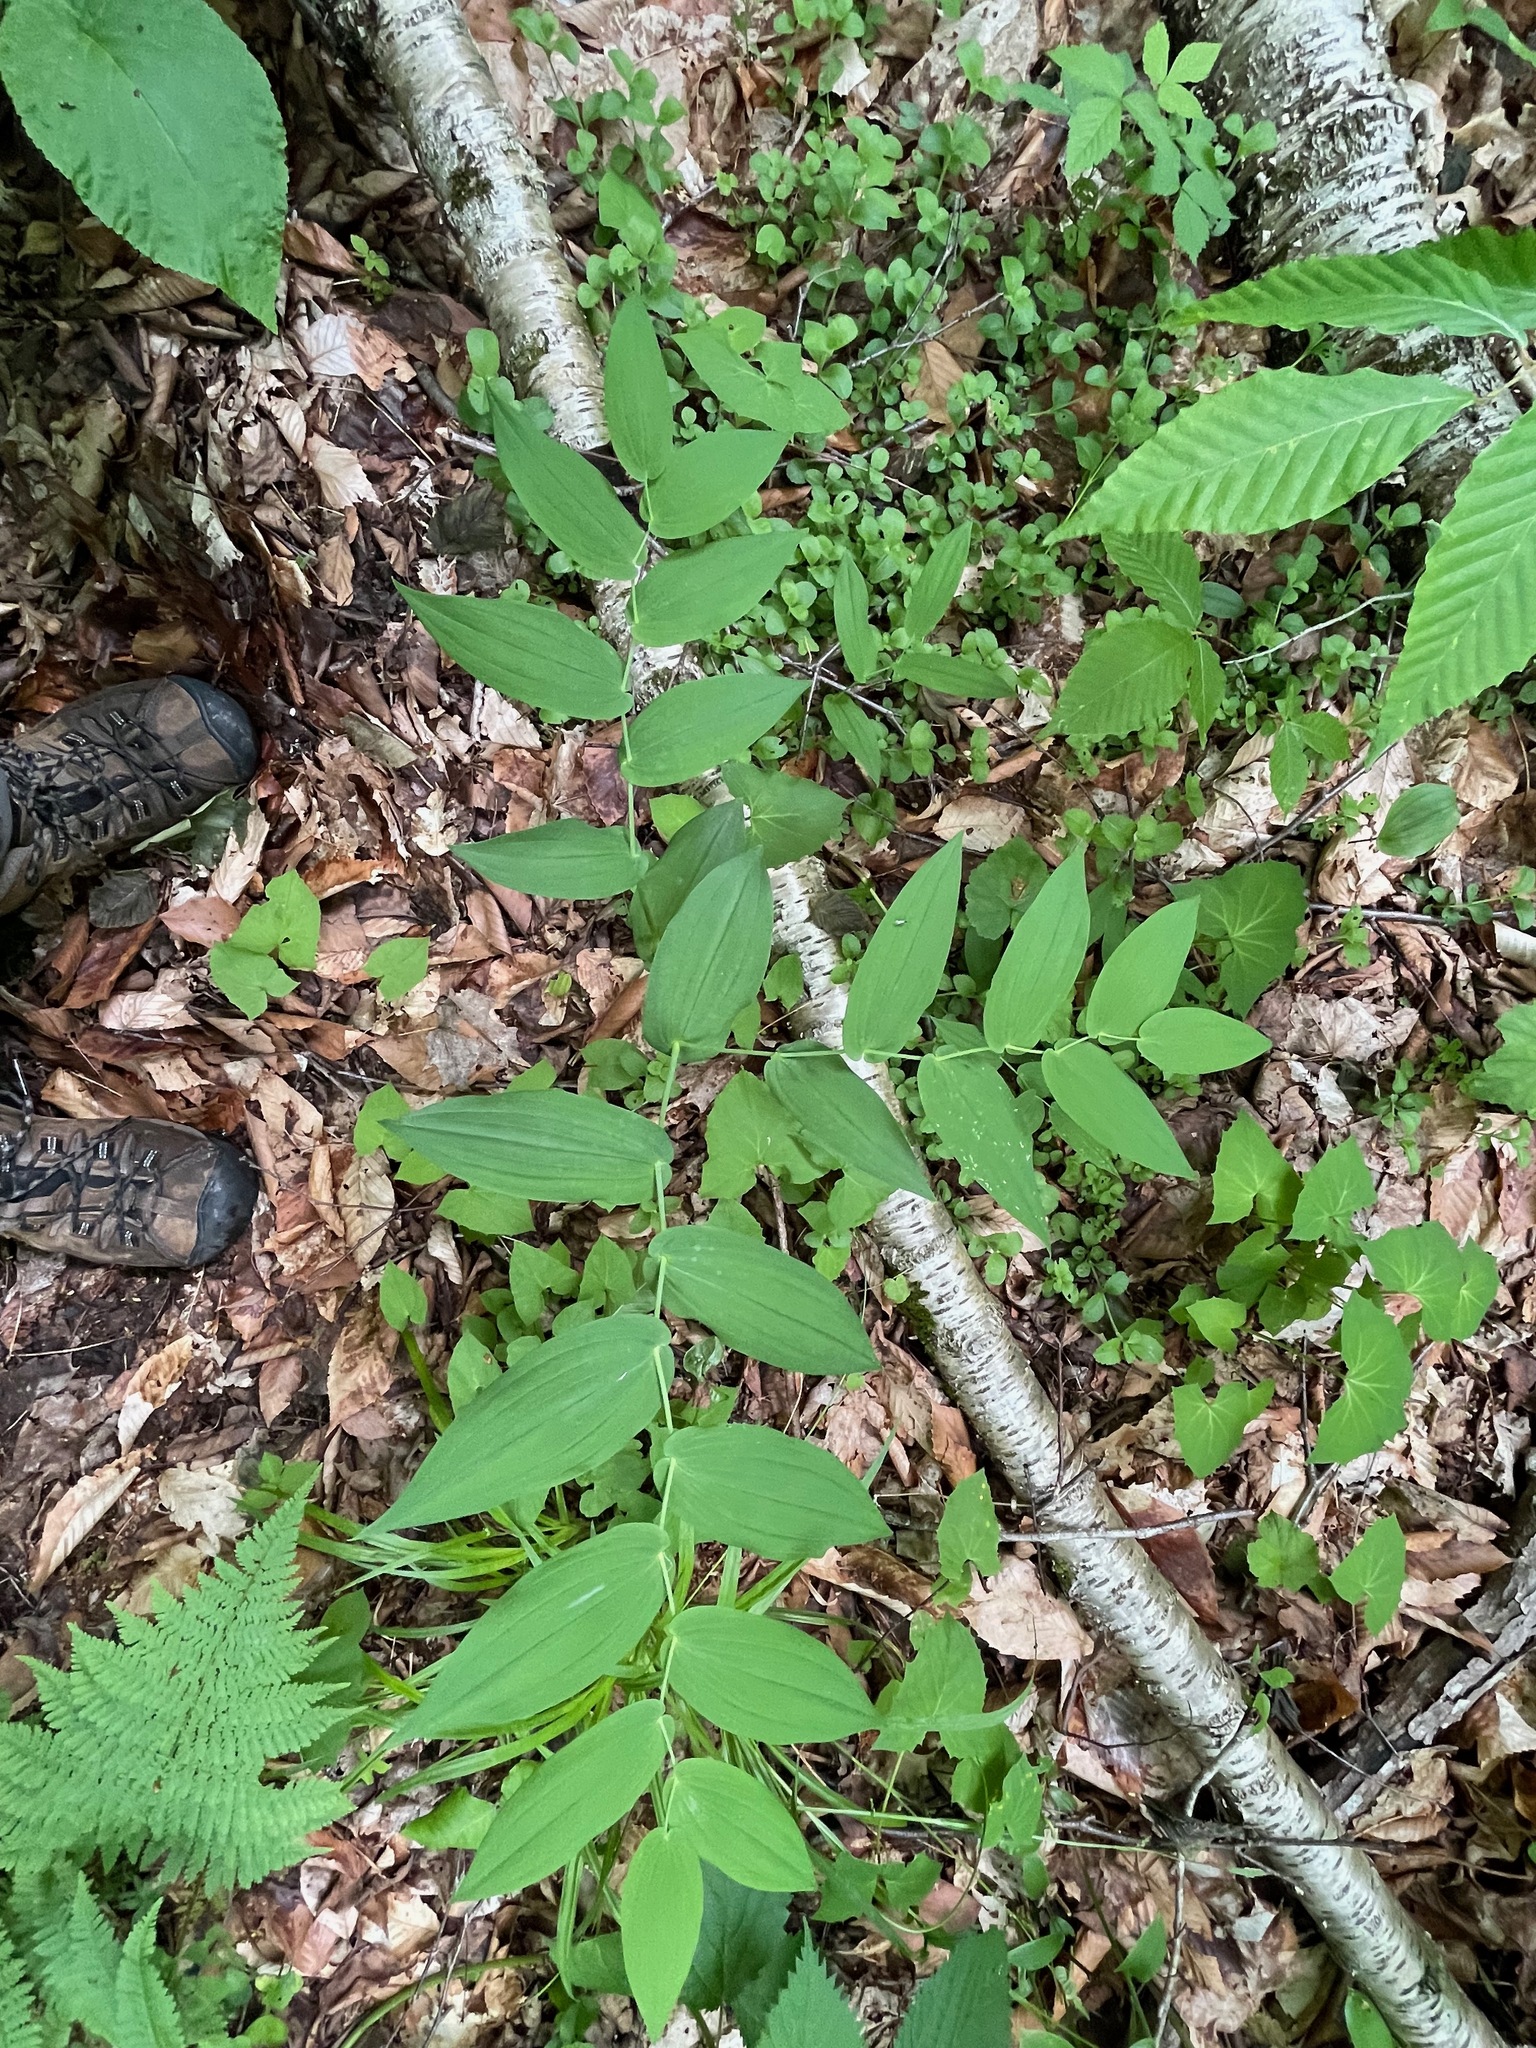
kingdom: Plantae
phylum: Tracheophyta
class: Liliopsida
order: Liliales
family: Liliaceae
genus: Streptopus
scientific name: Streptopus amplexifolius
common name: Clasp twisted stalk
